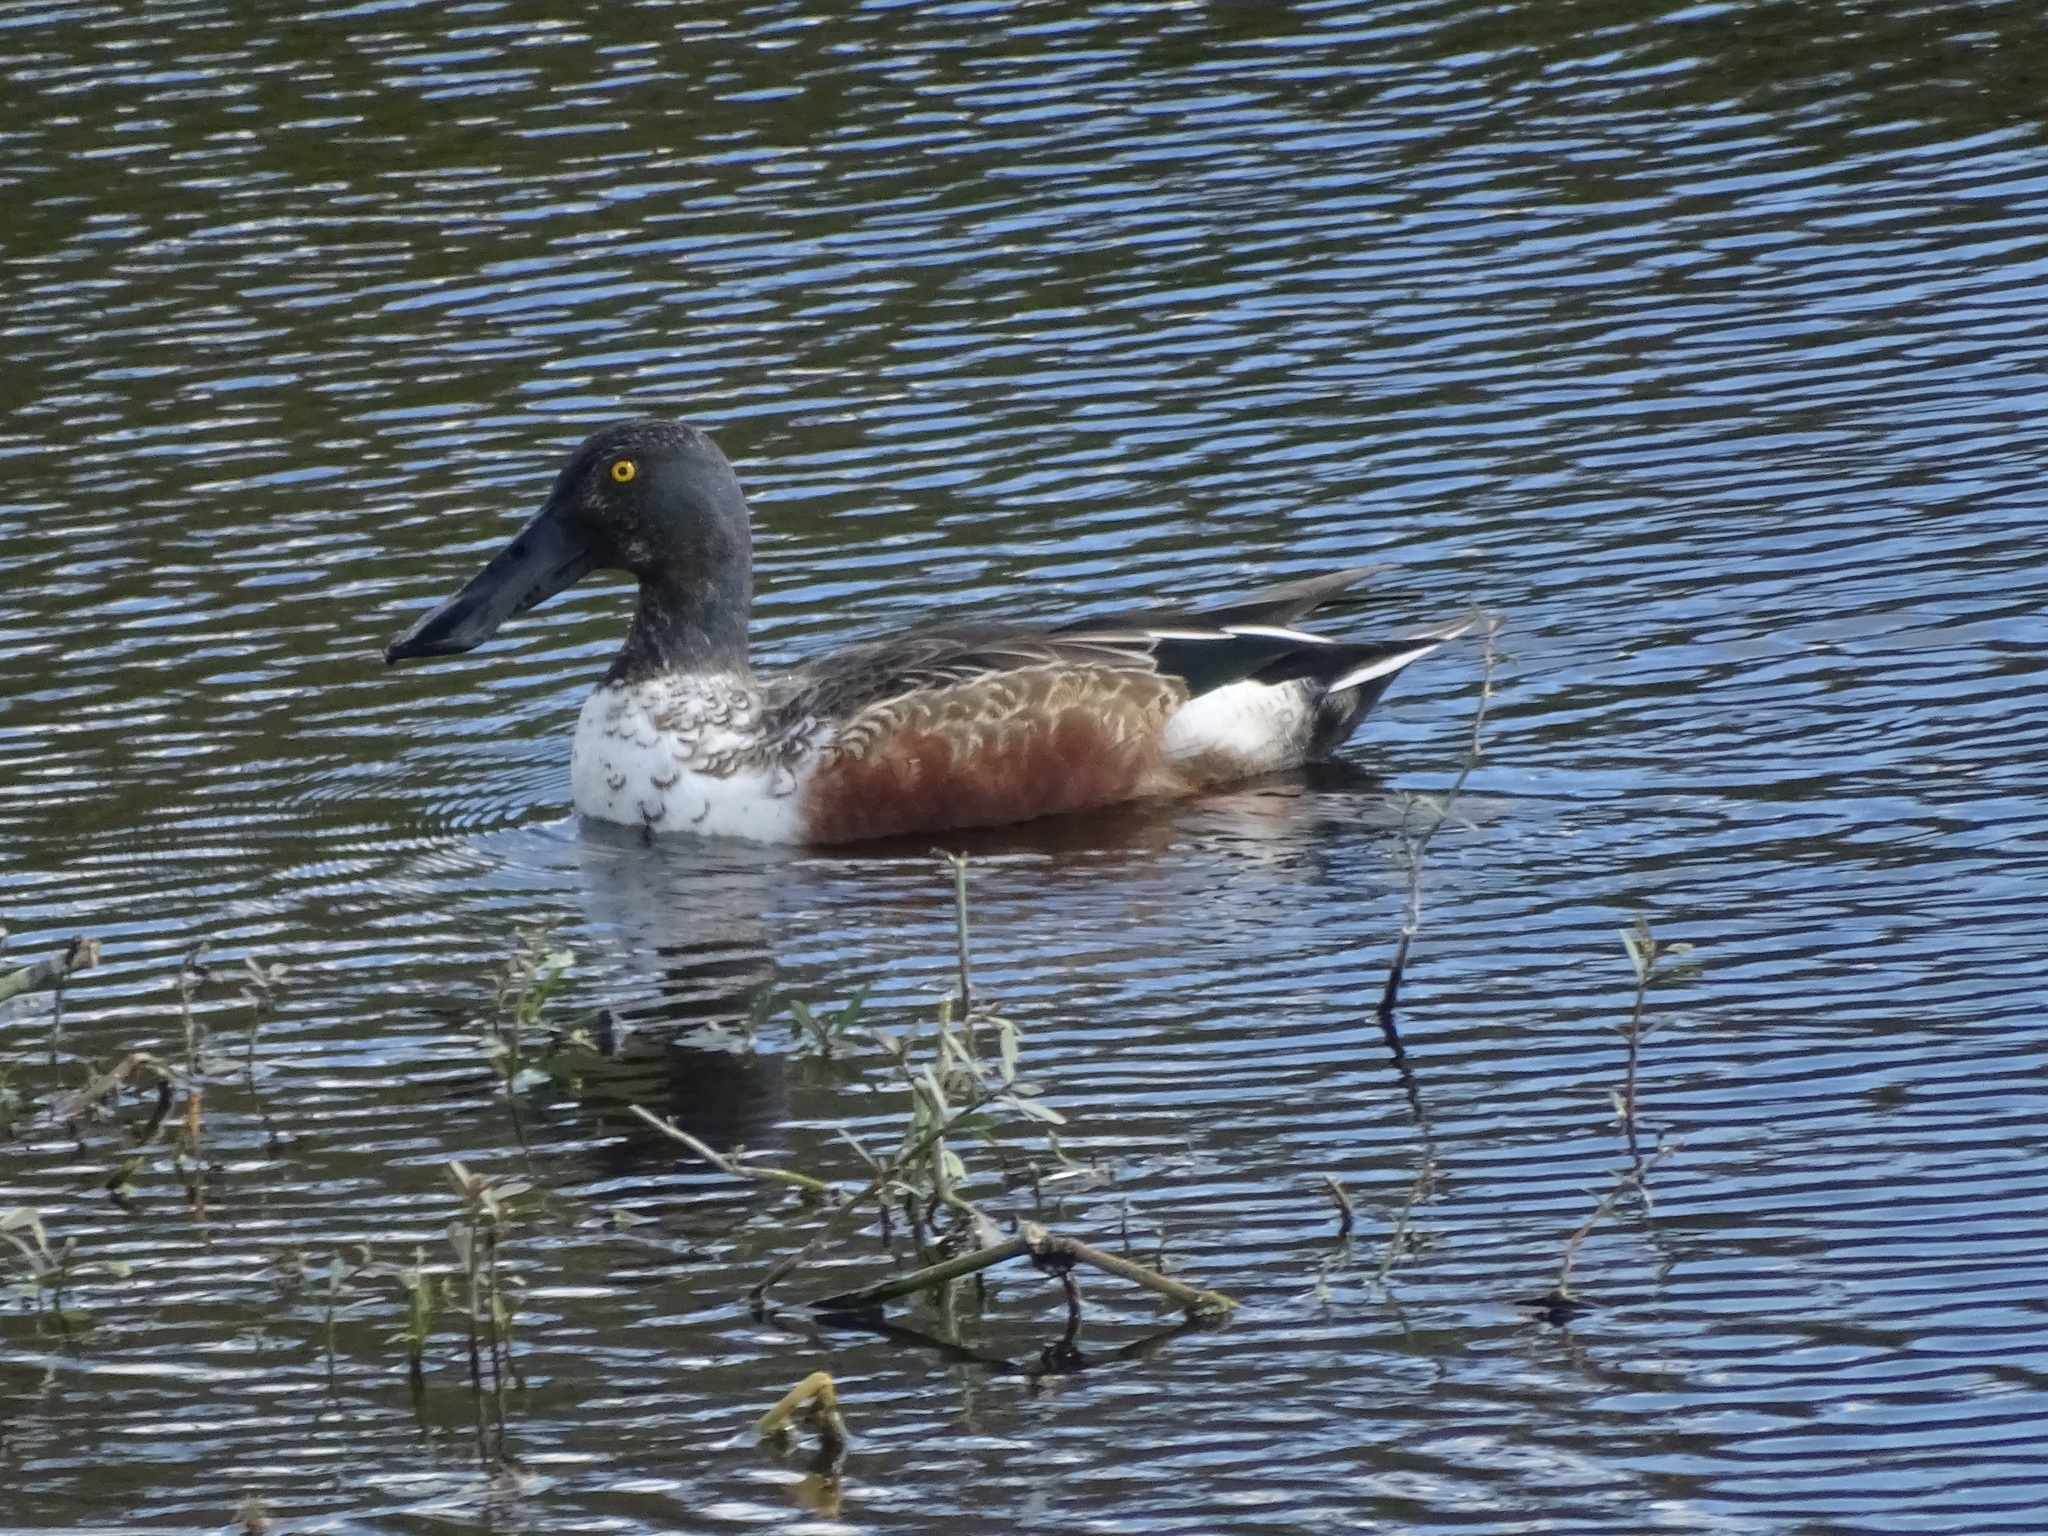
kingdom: Animalia
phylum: Chordata
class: Aves
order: Anseriformes
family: Anatidae
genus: Spatula
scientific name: Spatula clypeata
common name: Northern shoveler
